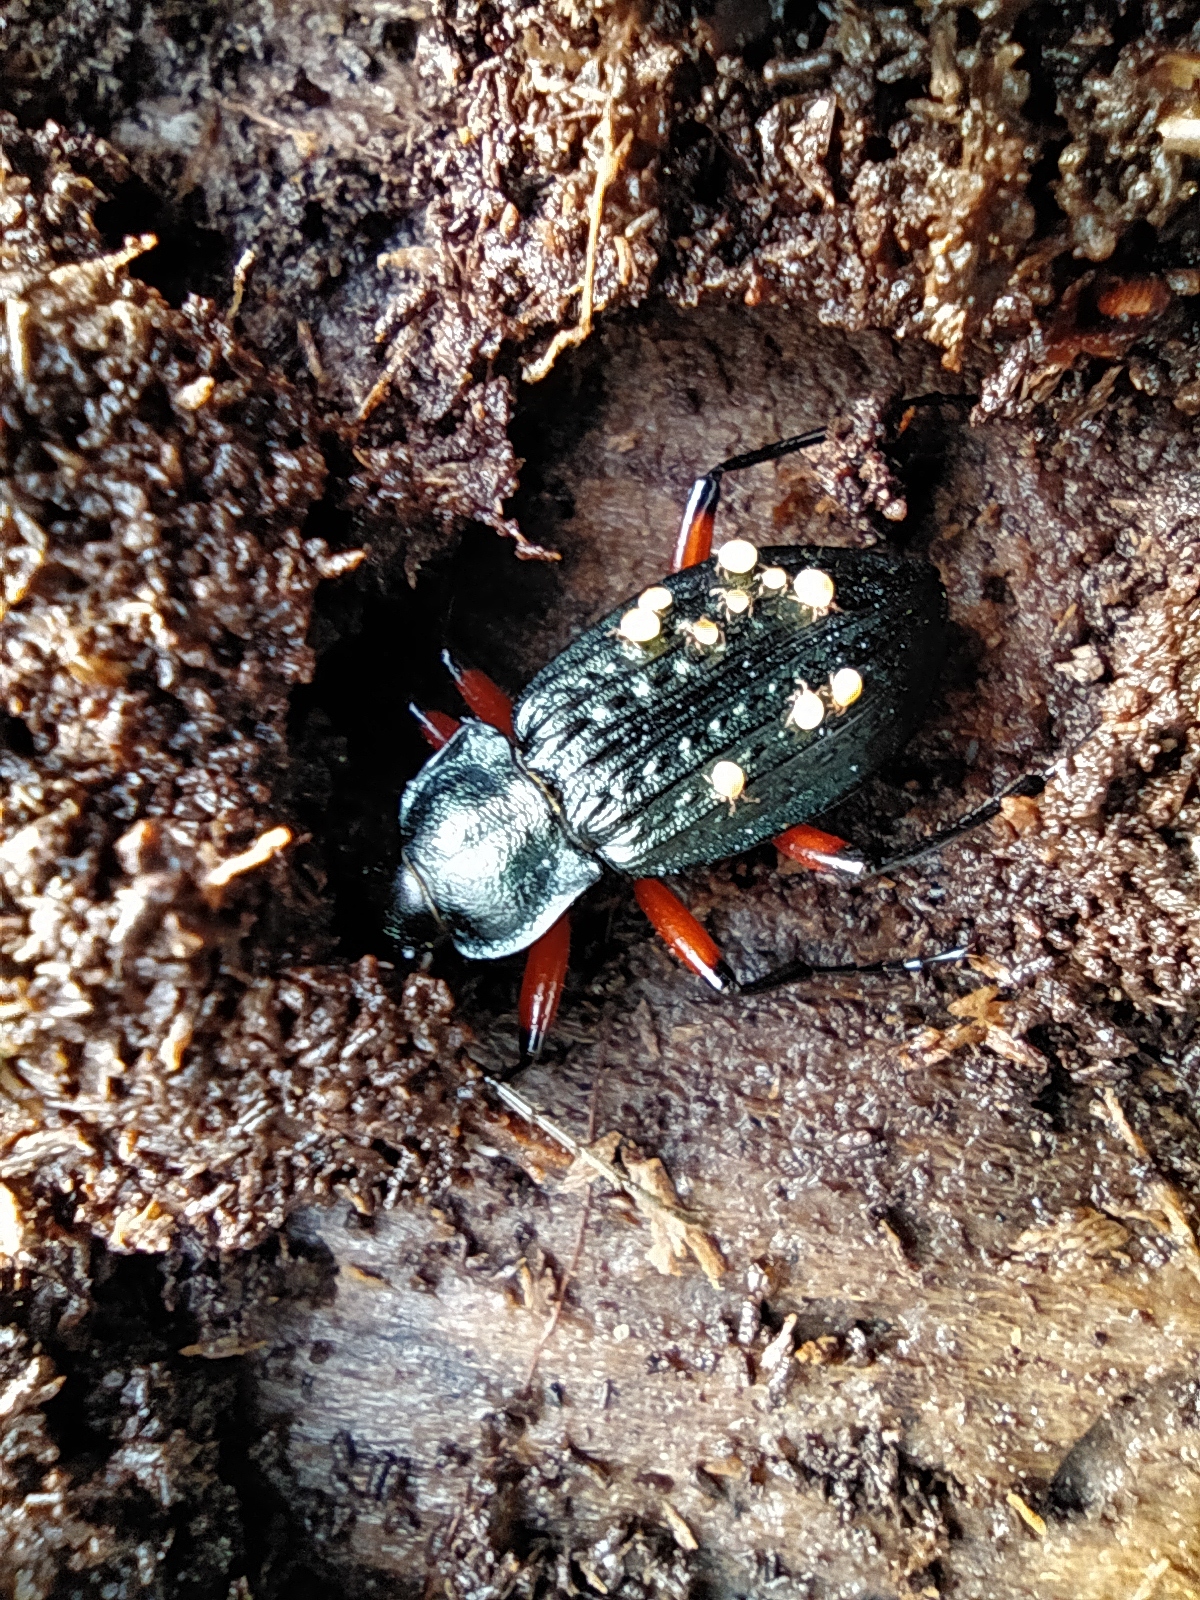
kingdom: Animalia
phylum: Arthropoda
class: Insecta
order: Coleoptera
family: Carabidae
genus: Carabus
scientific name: Carabus granulatus
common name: Granulate ground beetle
